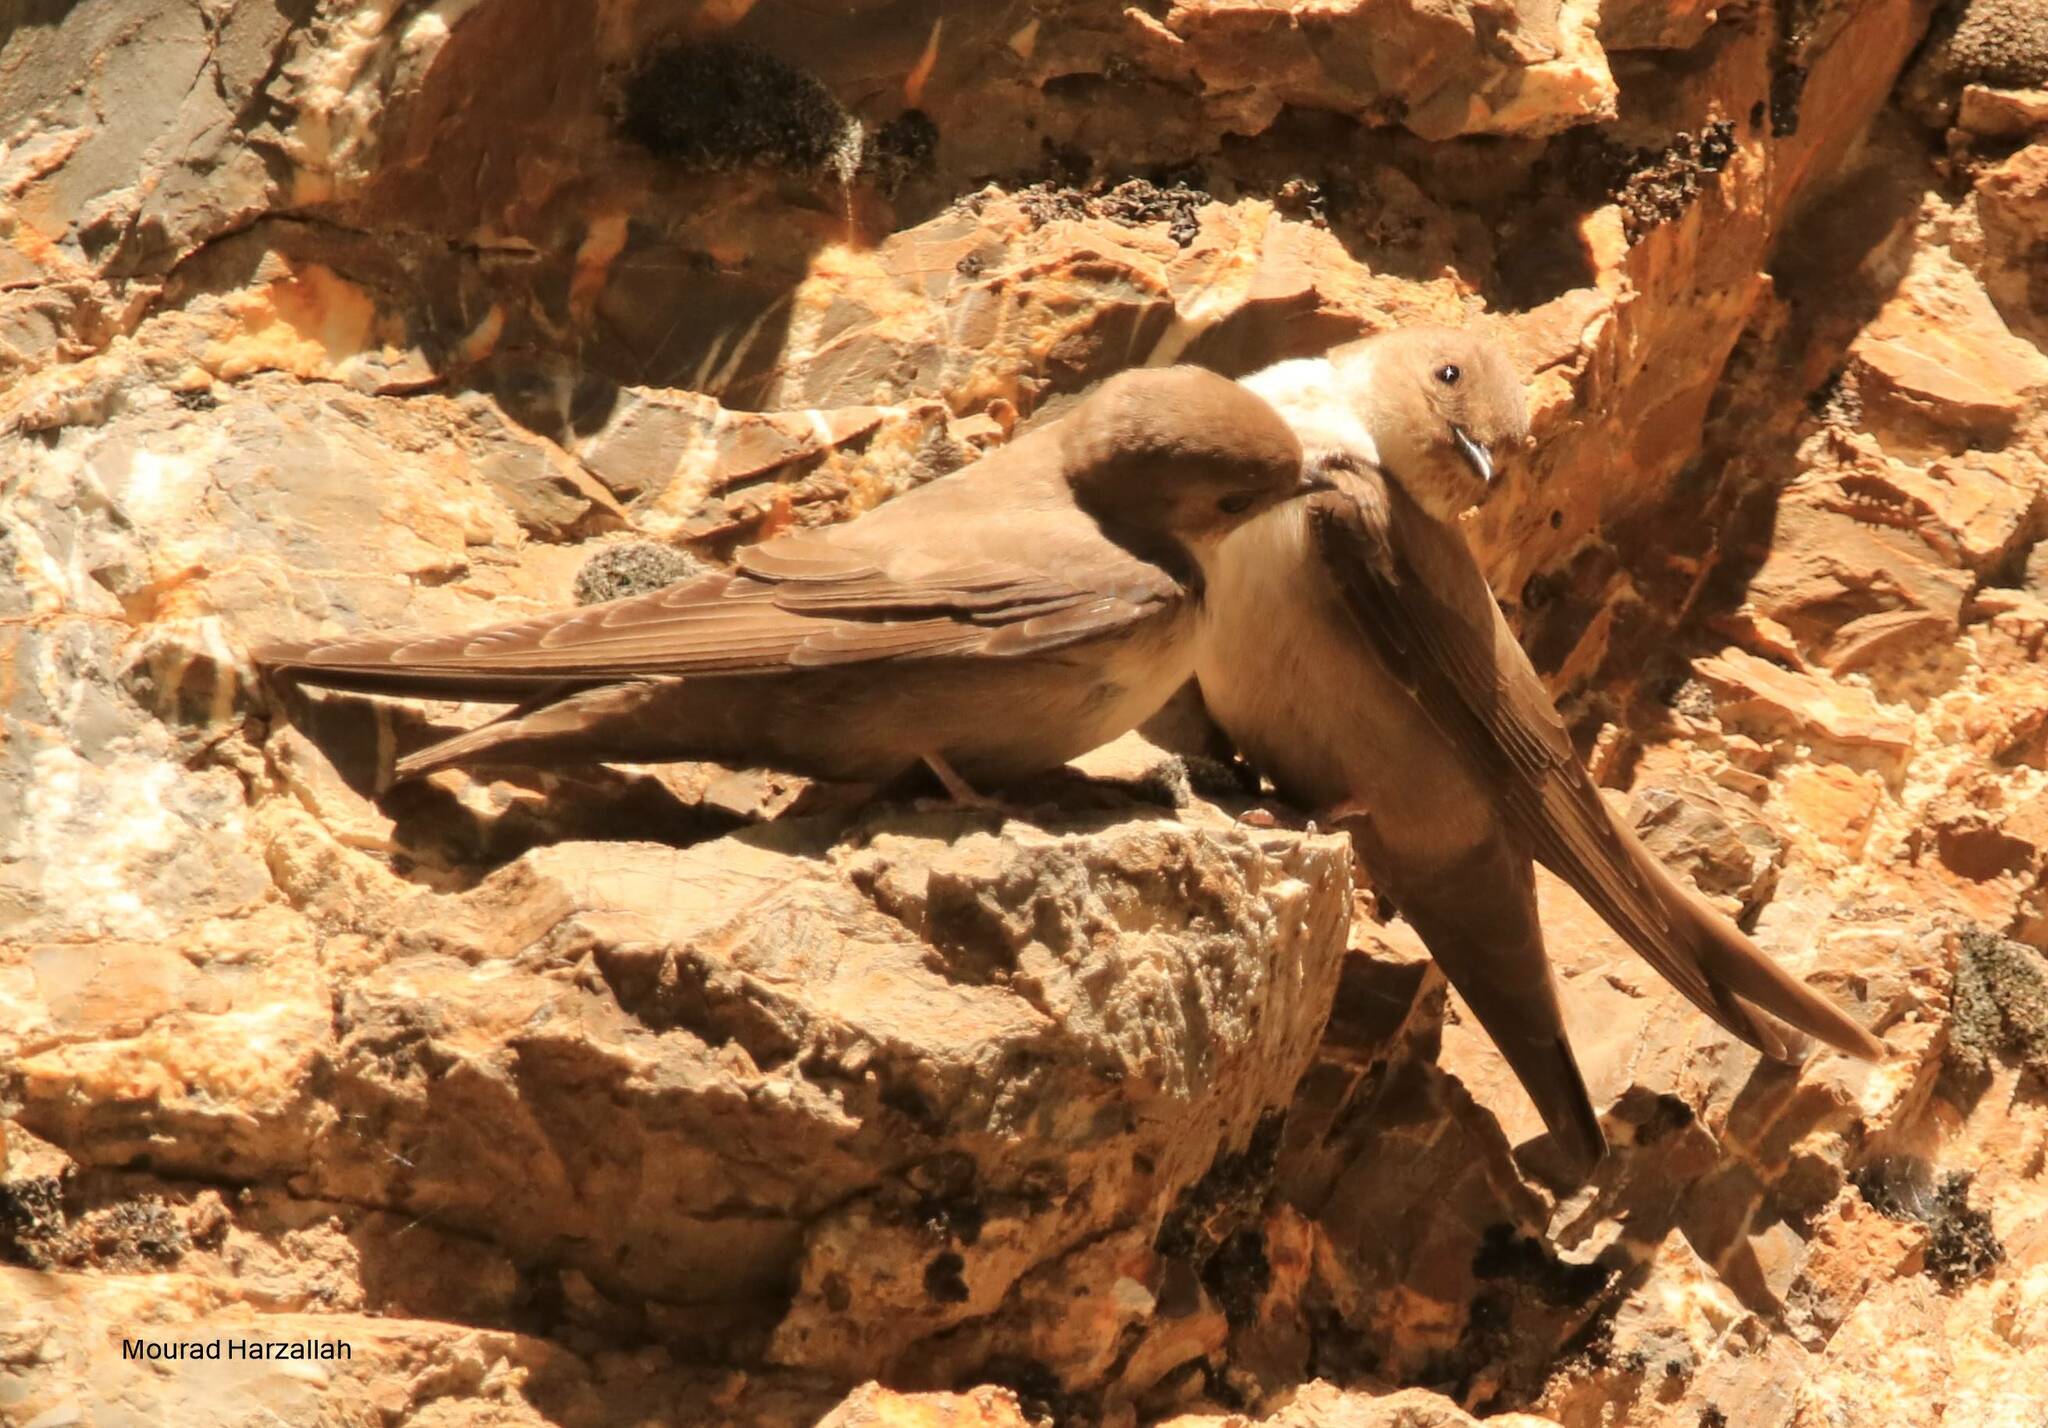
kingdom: Animalia
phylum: Chordata
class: Aves
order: Passeriformes
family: Hirundinidae
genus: Ptyonoprogne
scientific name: Ptyonoprogne rupestris
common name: Eurasian crag martin
